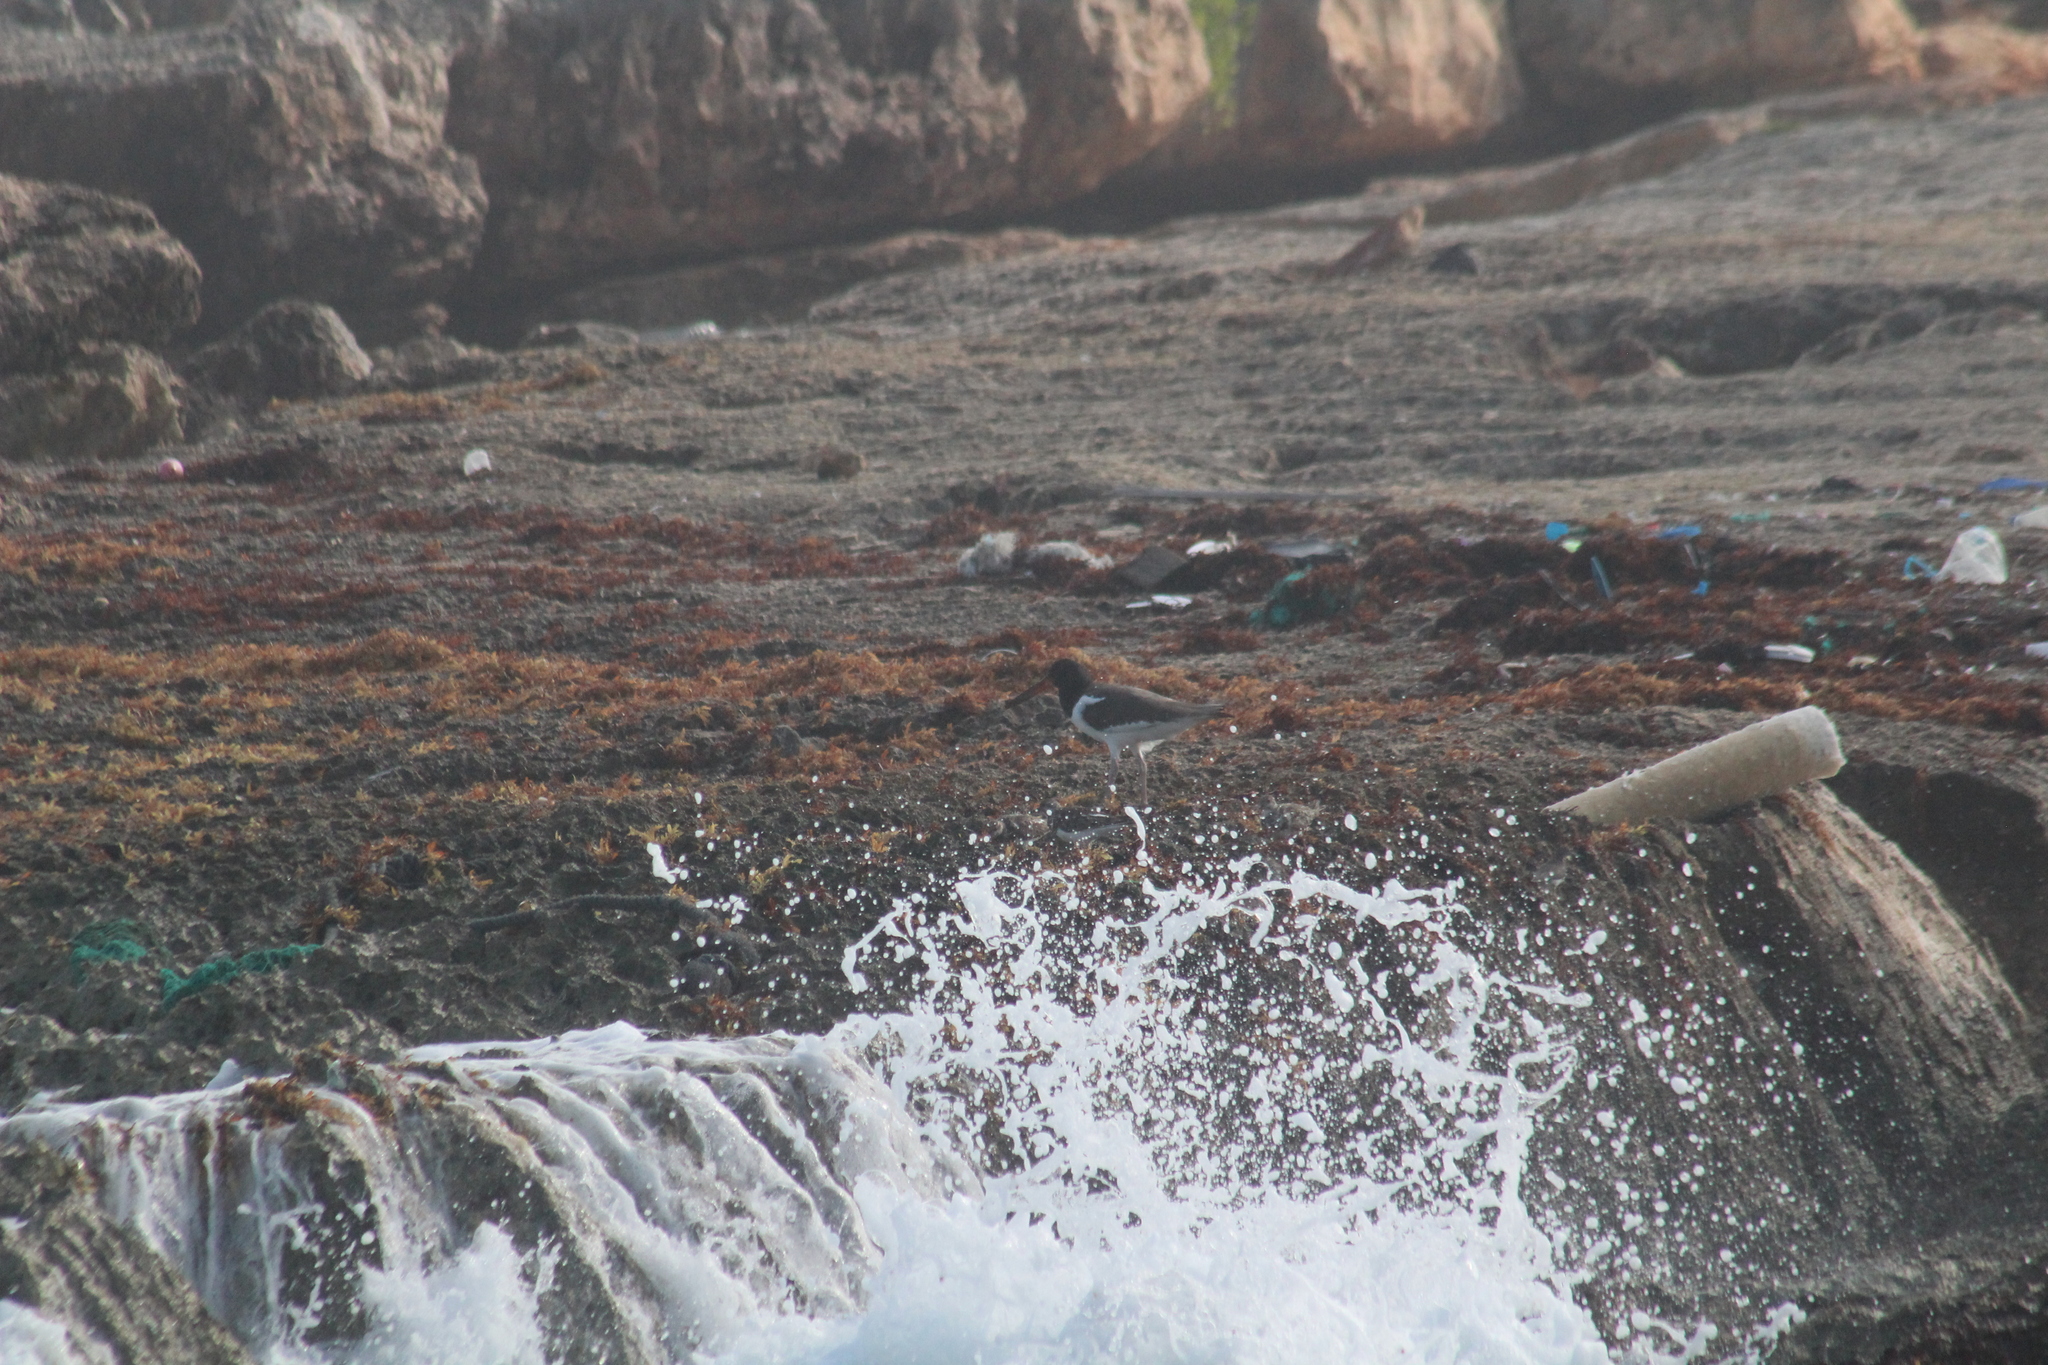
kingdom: Animalia
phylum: Chordata
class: Aves
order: Charadriiformes
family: Haematopodidae
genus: Haematopus
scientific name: Haematopus palliatus
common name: American oystercatcher
